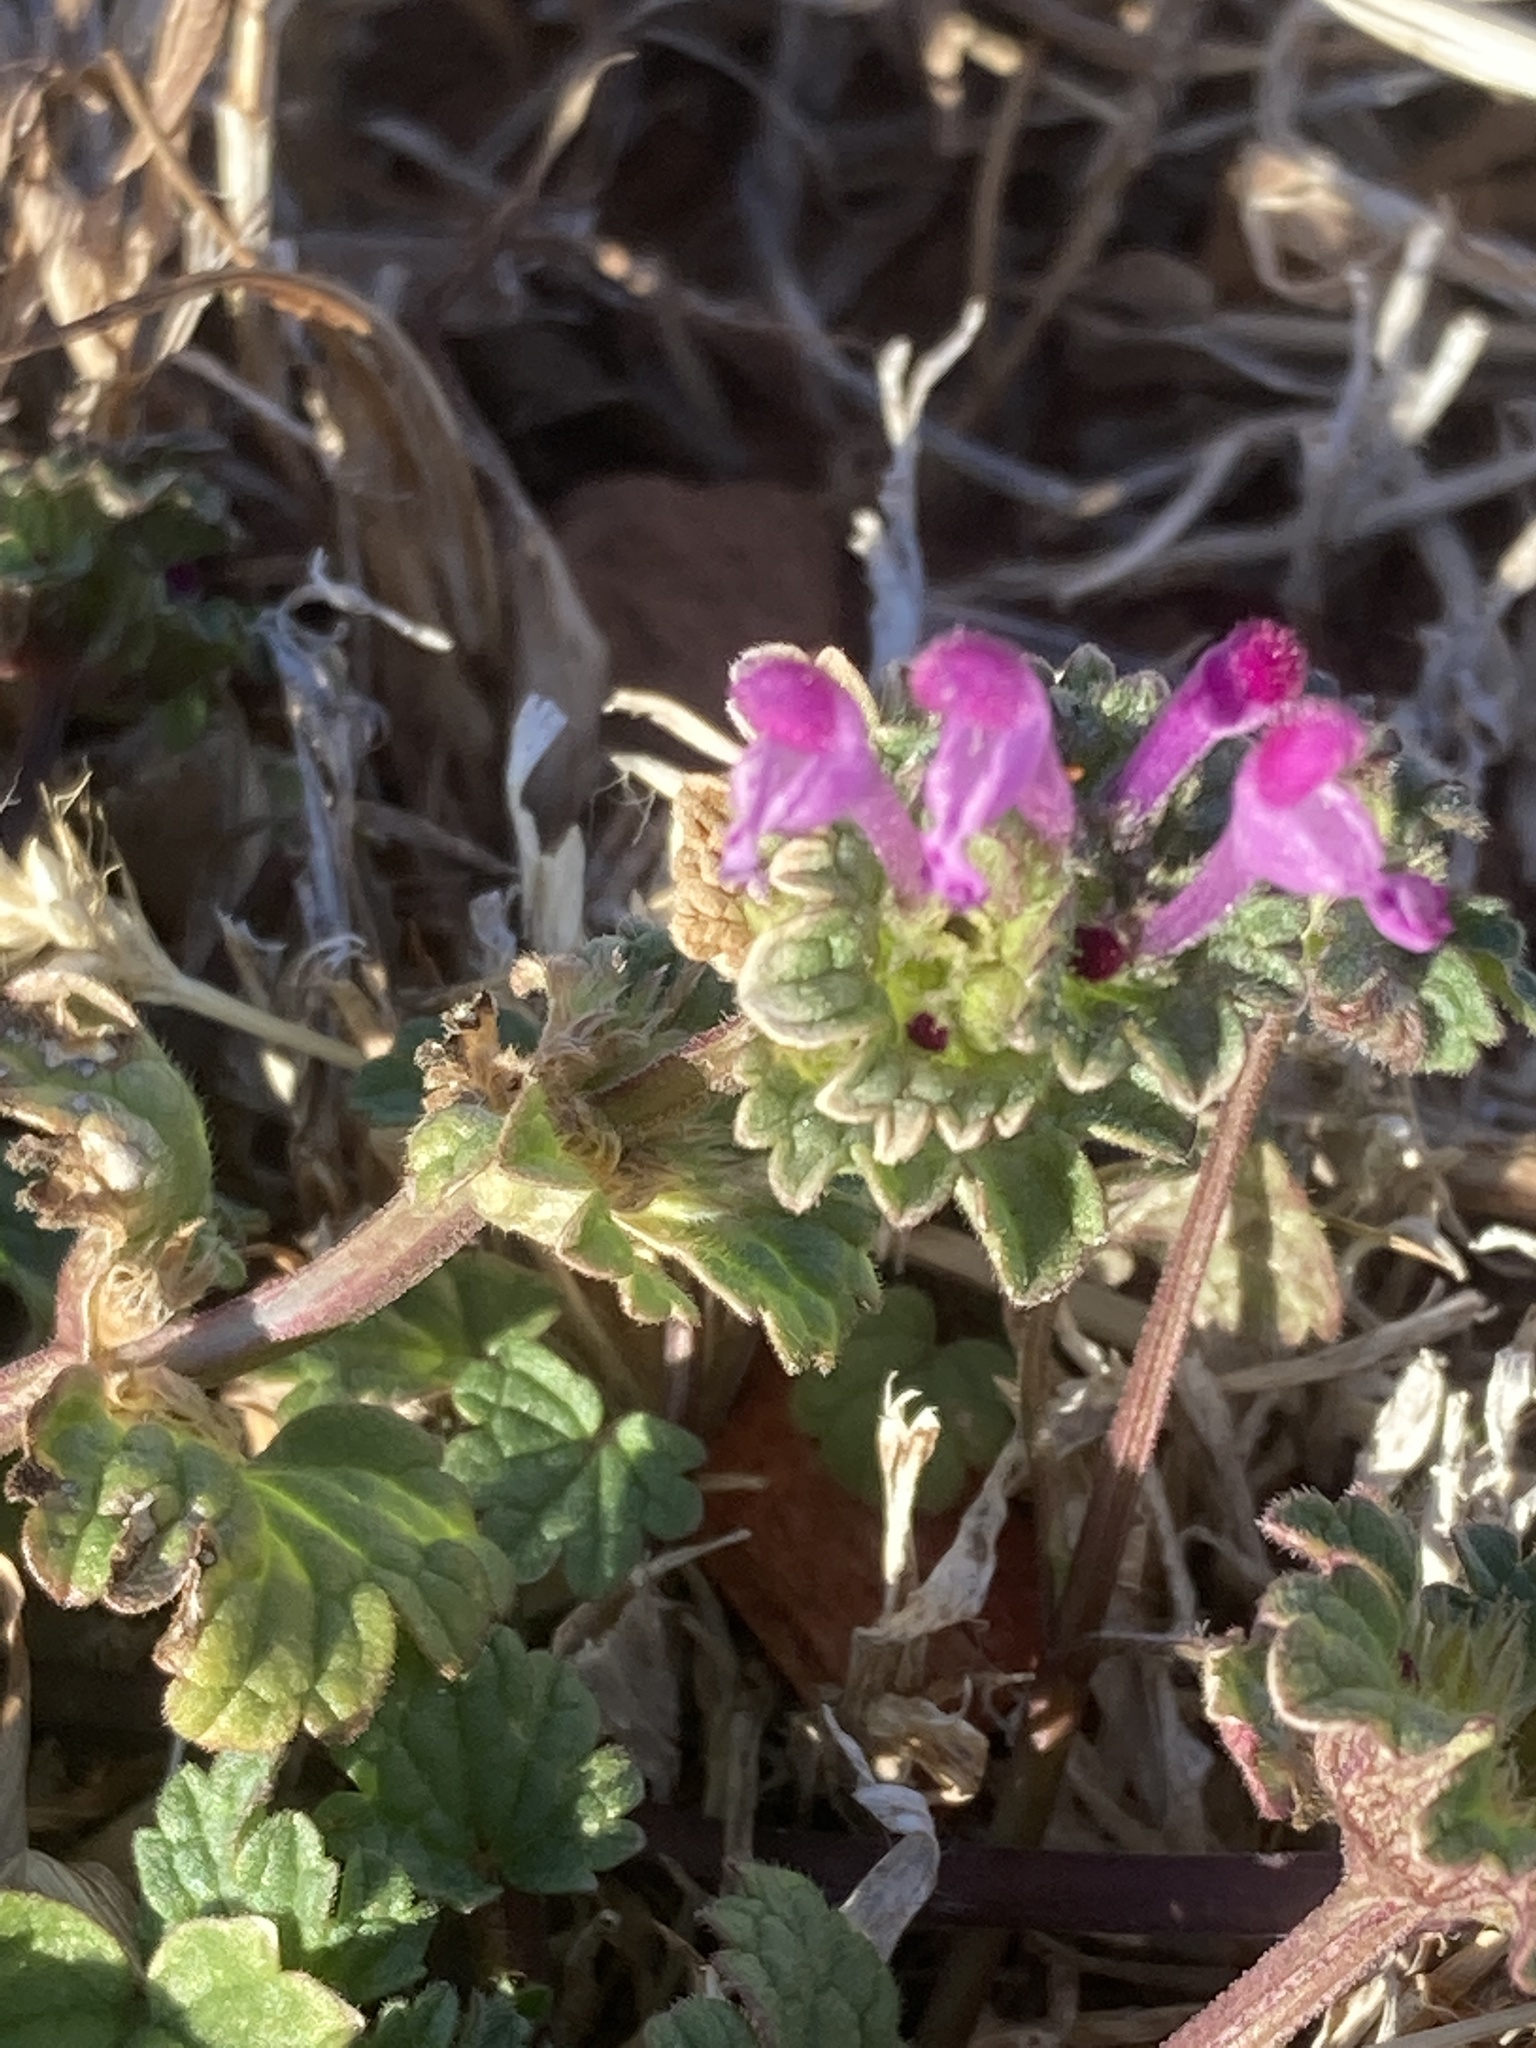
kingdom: Plantae
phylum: Tracheophyta
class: Magnoliopsida
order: Lamiales
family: Lamiaceae
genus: Lamium
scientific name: Lamium amplexicaule
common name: Henbit dead-nettle
